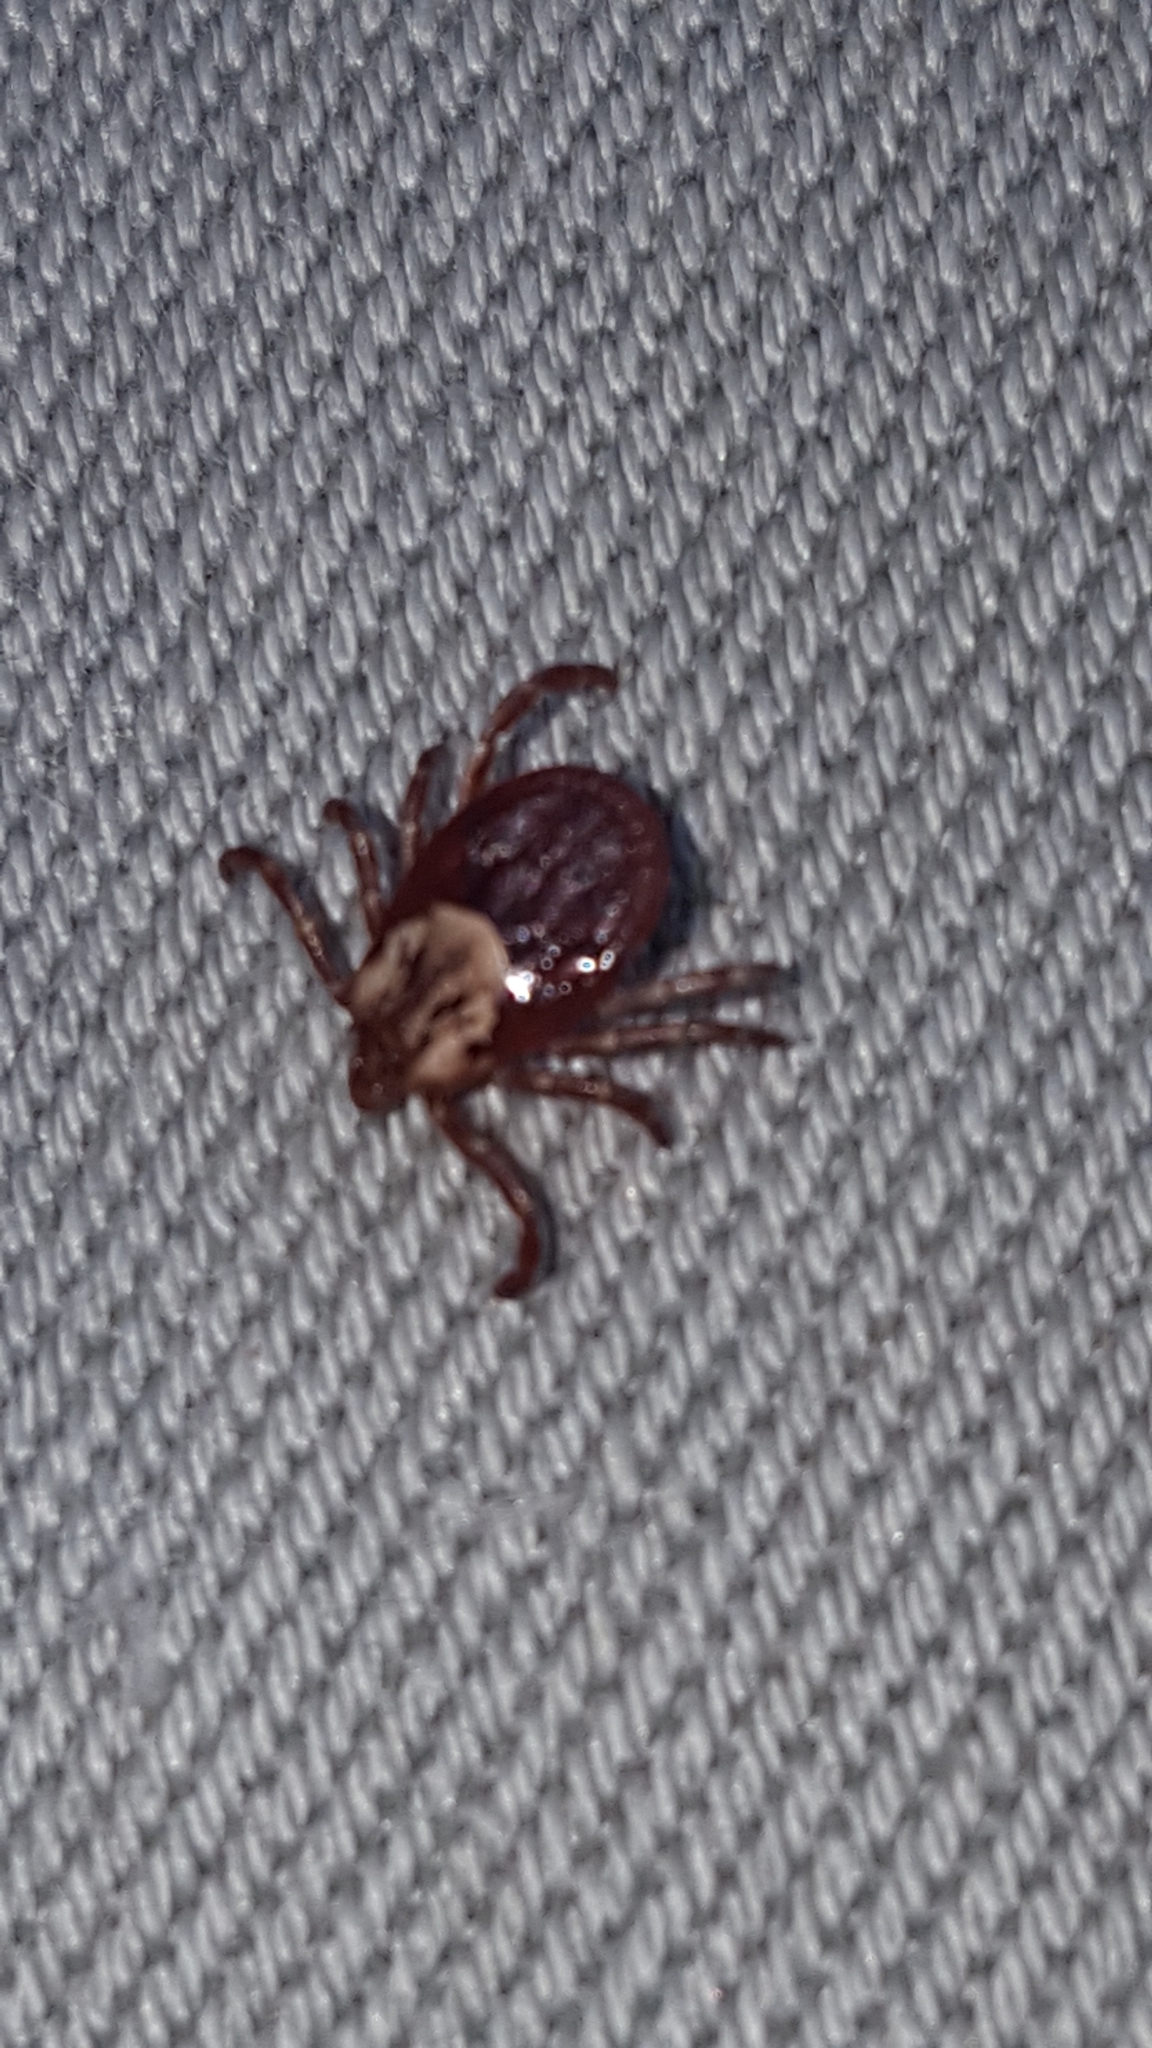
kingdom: Animalia
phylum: Arthropoda
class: Arachnida
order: Ixodida
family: Ixodidae
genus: Dermacentor
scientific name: Dermacentor variabilis
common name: American dog tick
